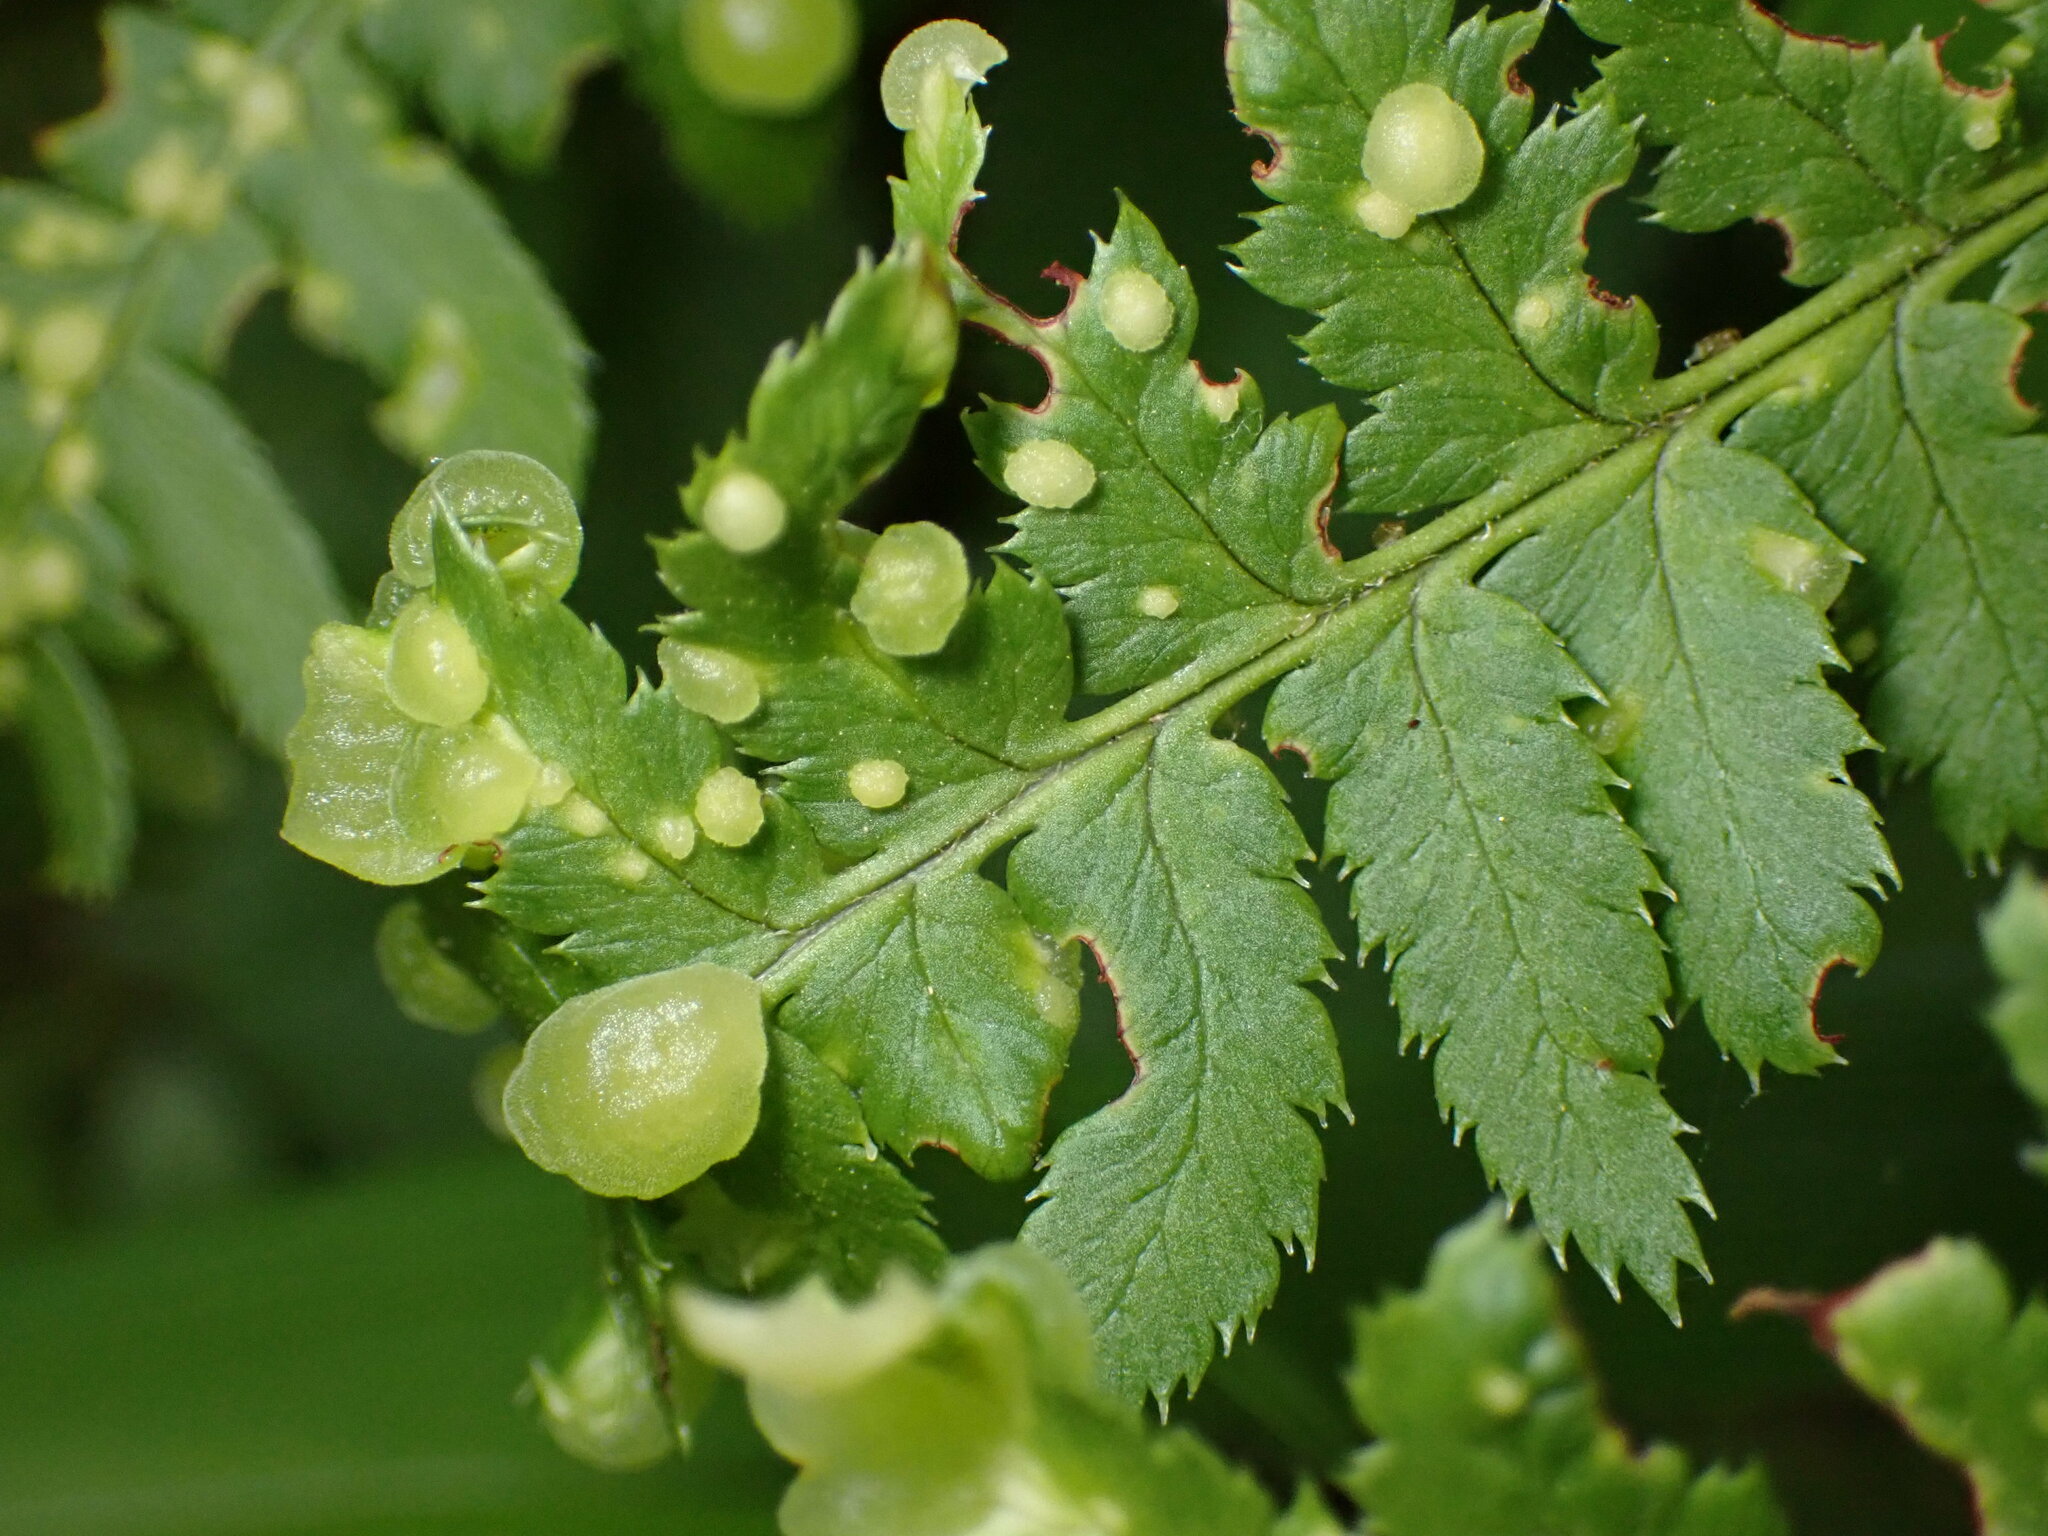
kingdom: Fungi
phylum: Ascomycota
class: Taphrinomycetes
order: Taphrinales
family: Taphrinaceae
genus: Taphrina
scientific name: Taphrina californica
